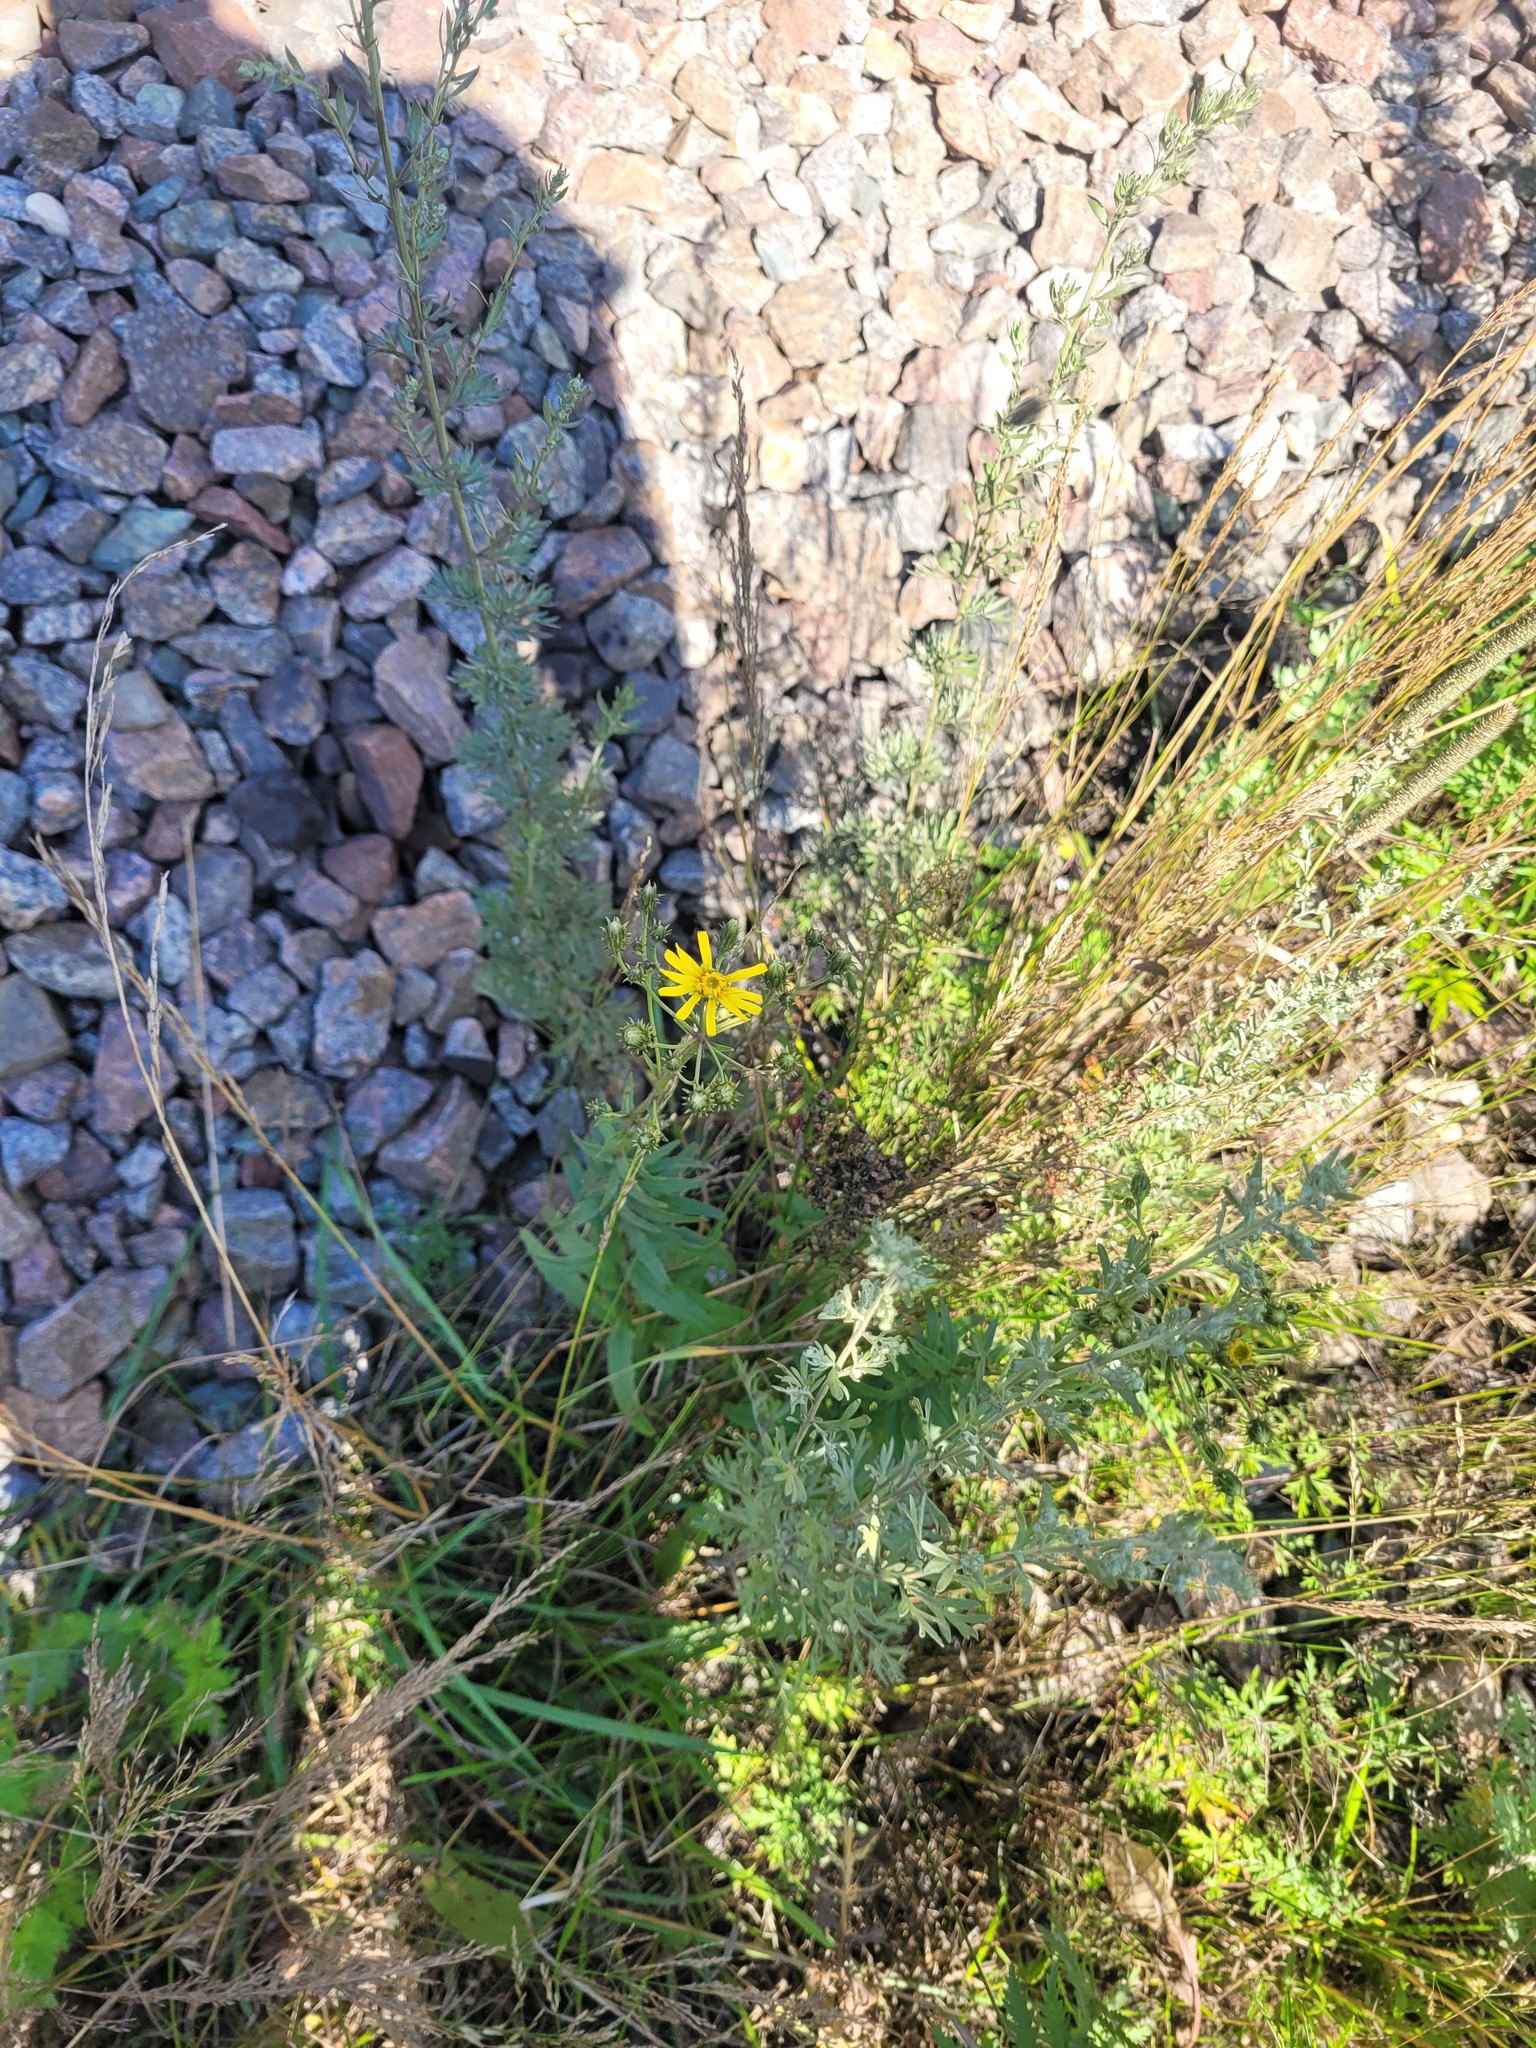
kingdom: Plantae
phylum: Tracheophyta
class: Magnoliopsida
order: Asterales
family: Asteraceae
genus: Hieracium
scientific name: Hieracium umbellatum
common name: Northern hawkweed
